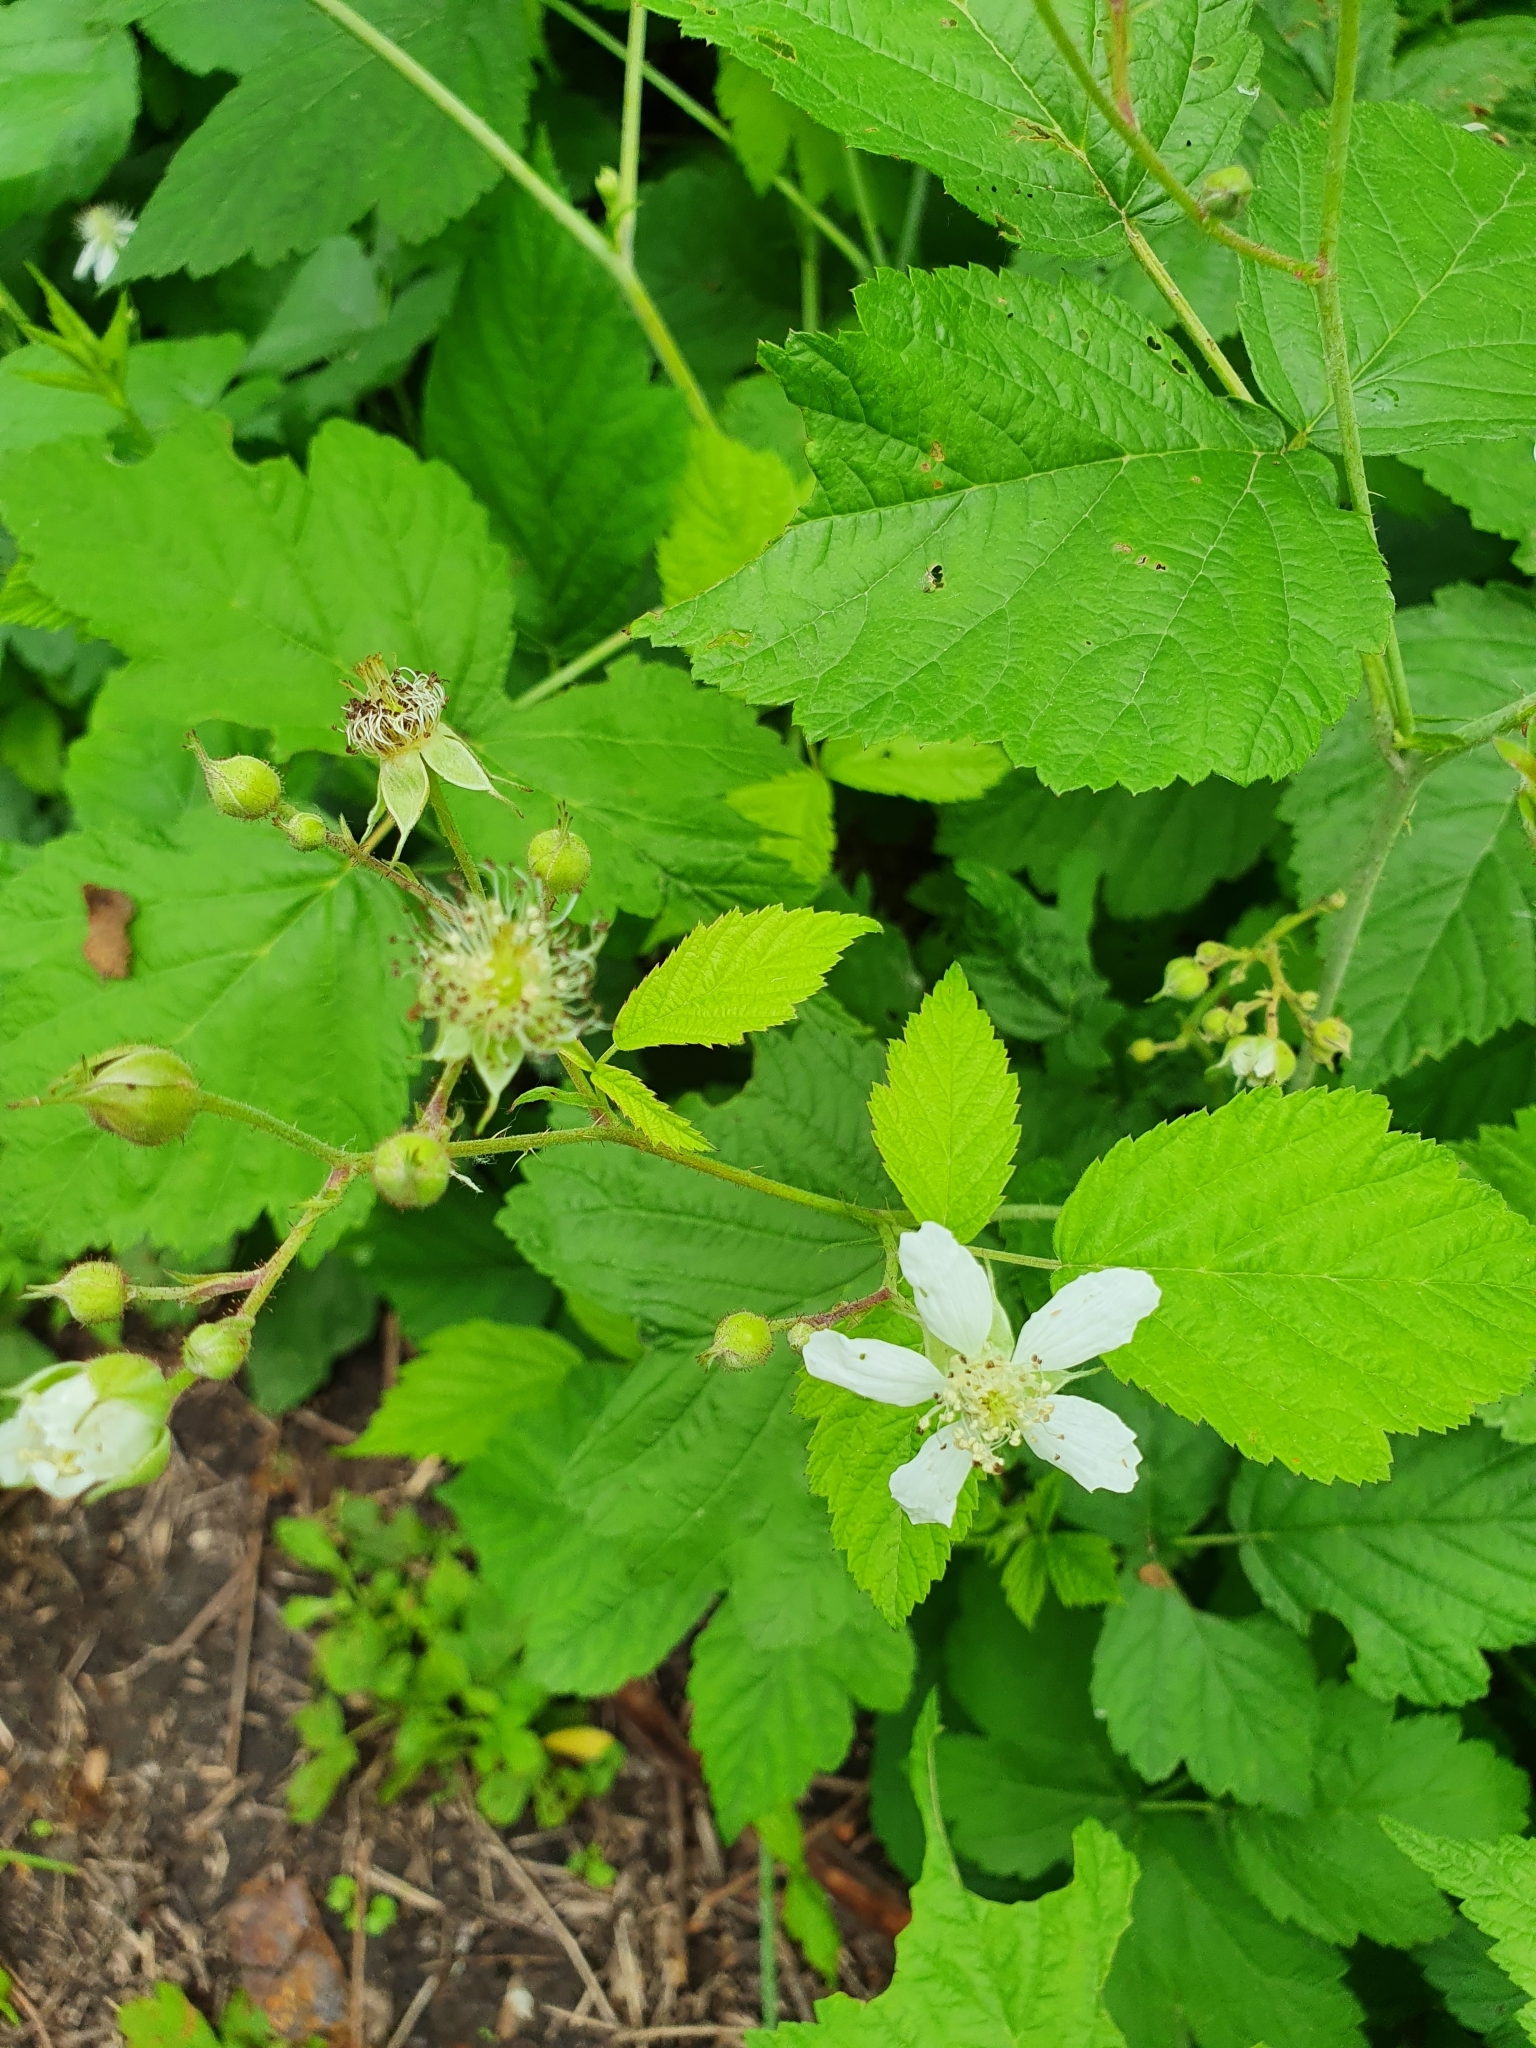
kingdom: Plantae
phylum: Tracheophyta
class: Magnoliopsida
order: Rosales
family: Rosaceae
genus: Rubus
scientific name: Rubus caesius
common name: Dewberry
